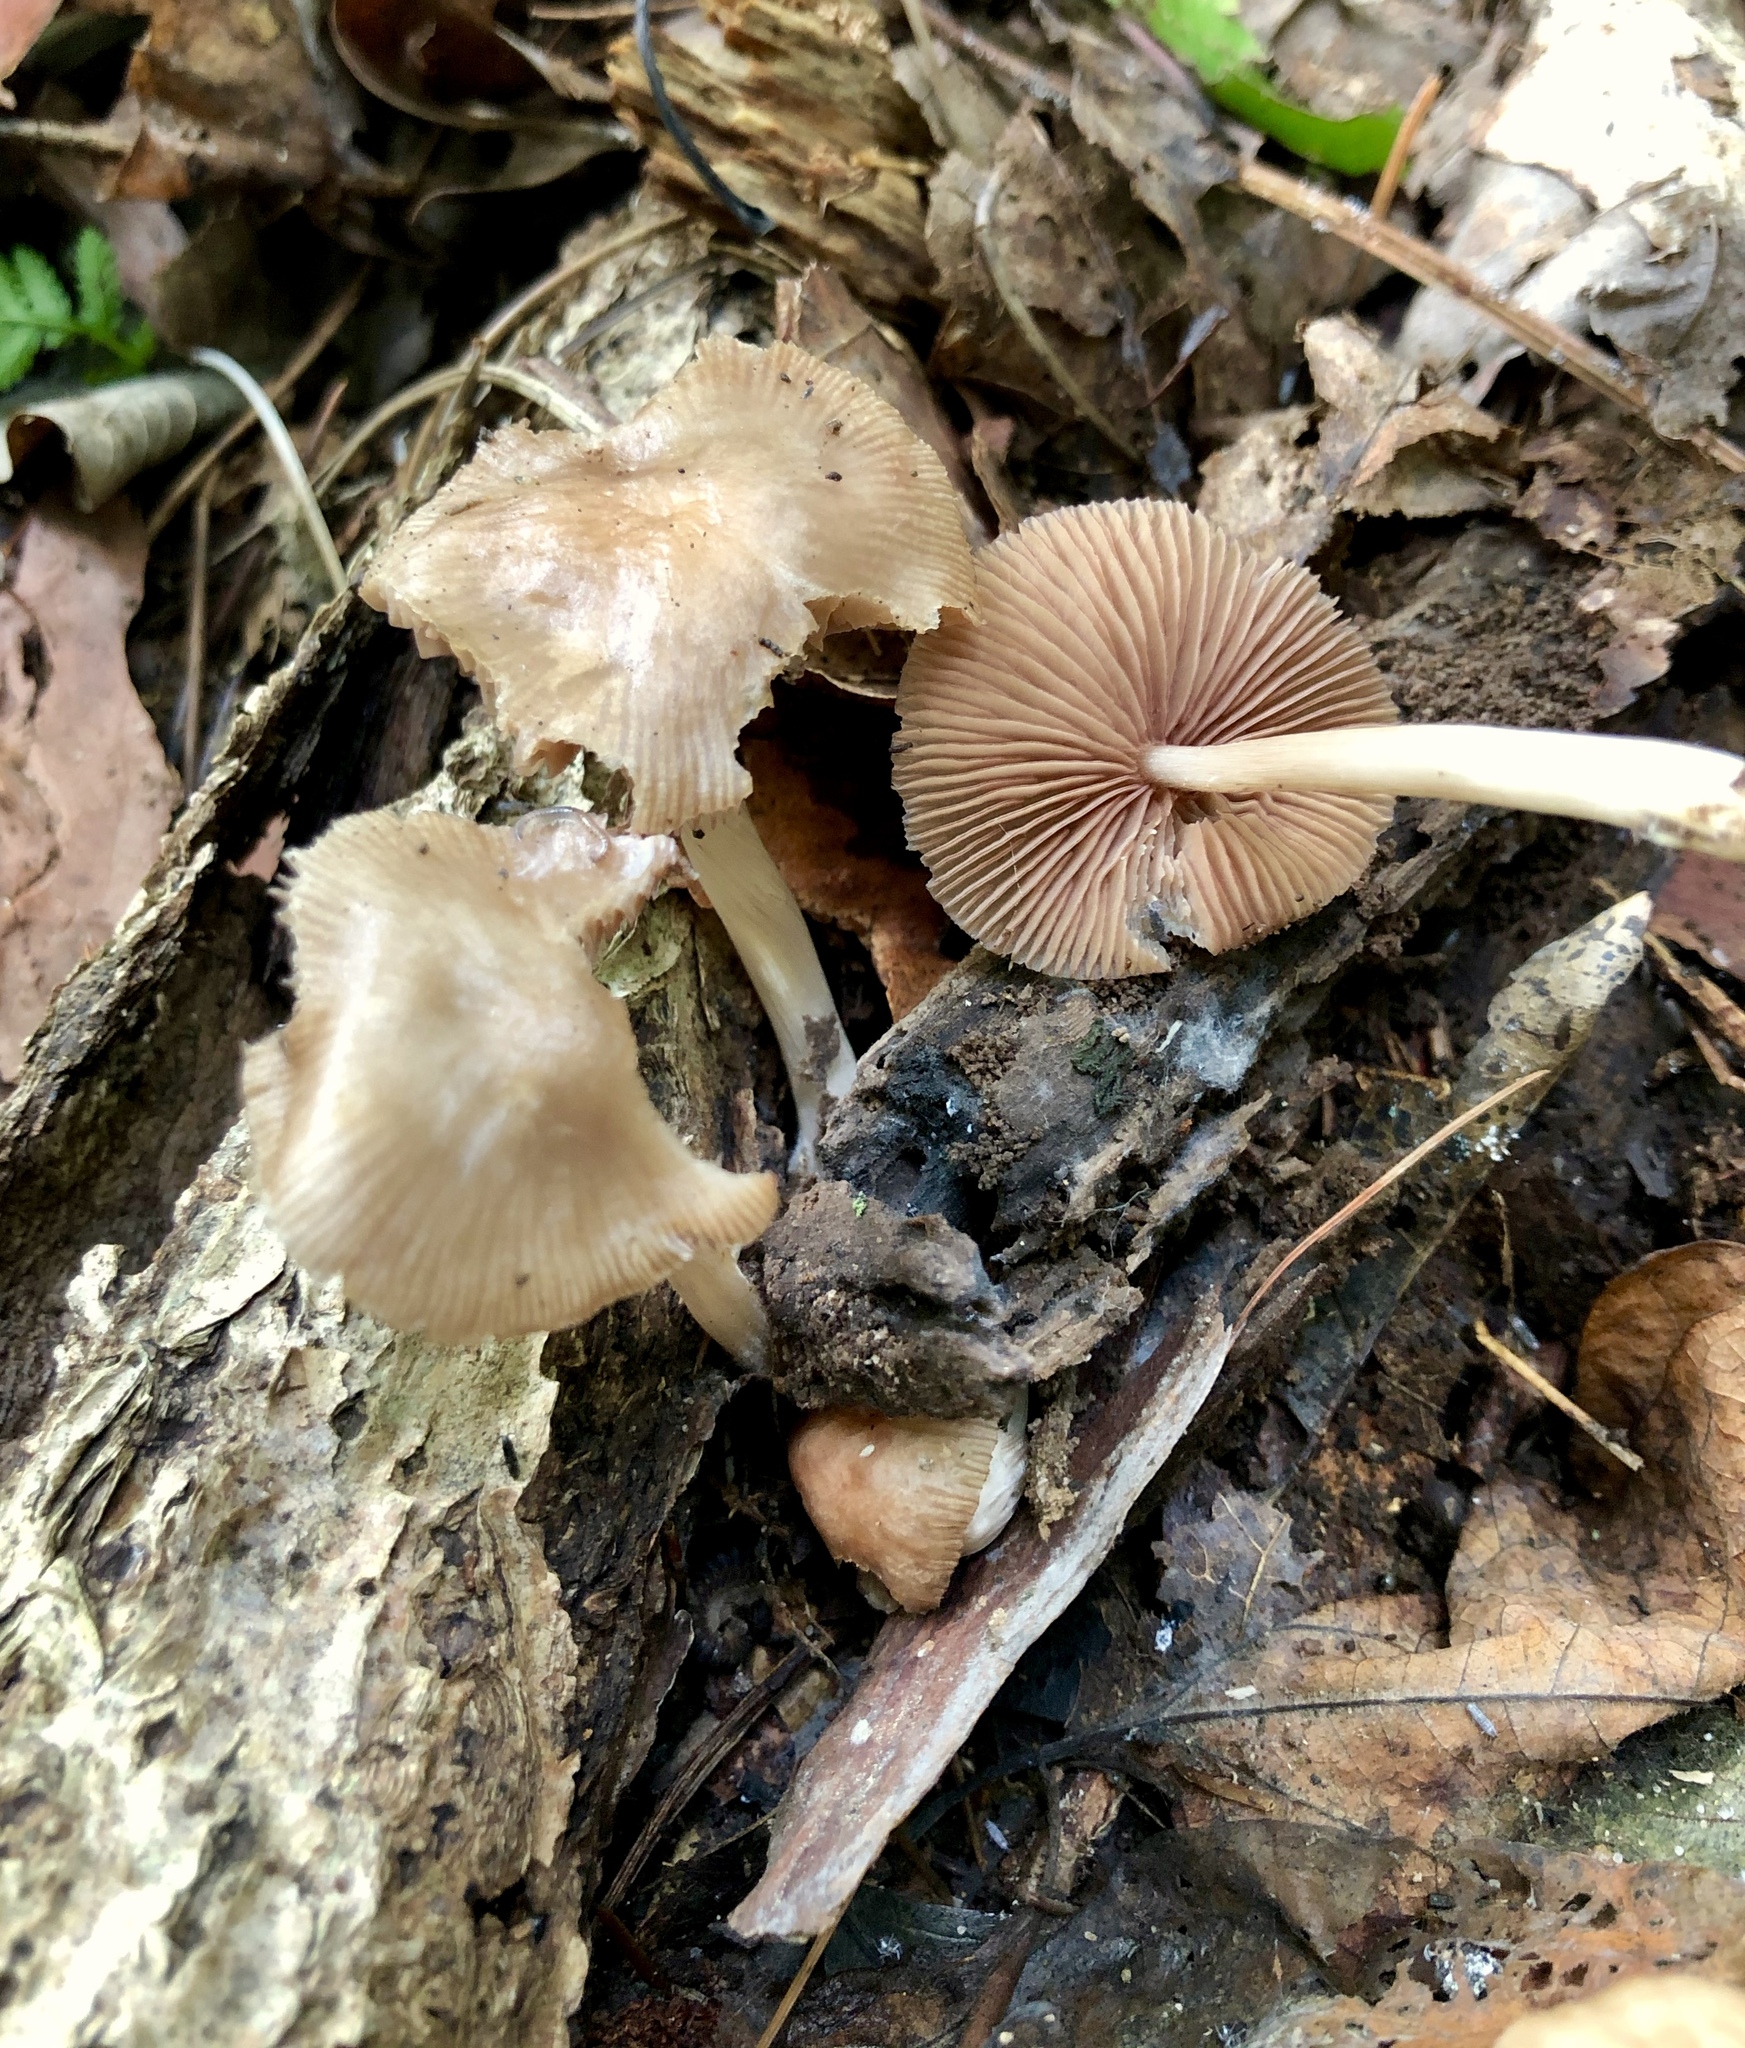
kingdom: Fungi
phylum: Basidiomycota
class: Agaricomycetes
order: Agaricales
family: Mycenaceae
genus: Mycena
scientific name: Mycena galericulata
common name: Bonnet mycena
